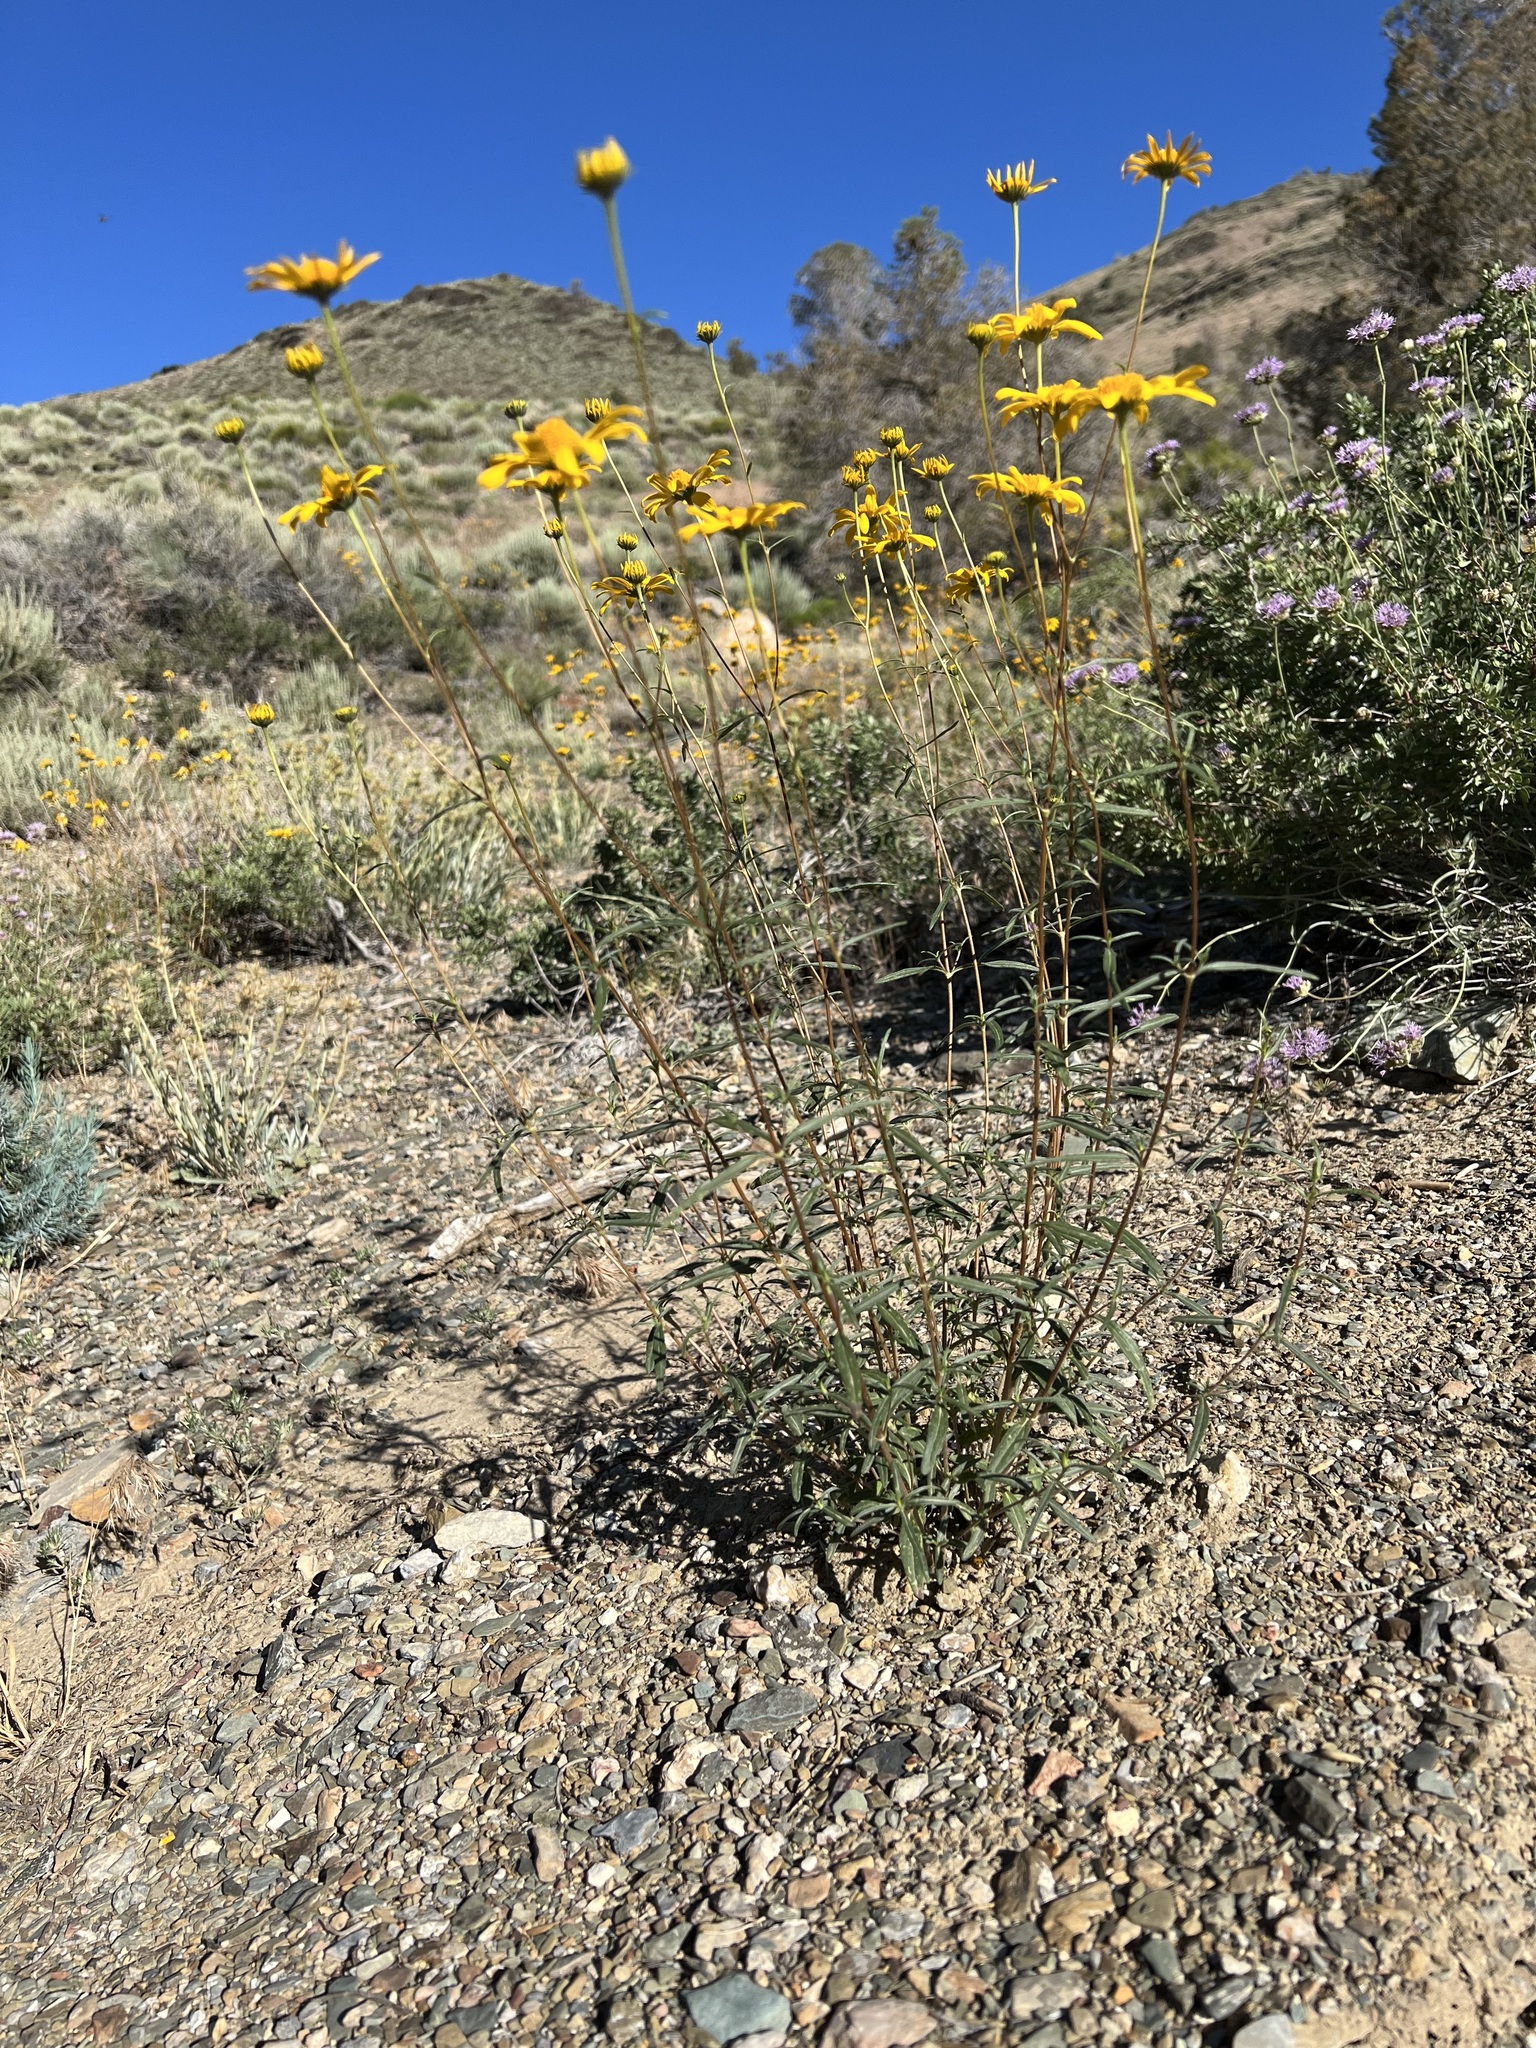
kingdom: Plantae
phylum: Tracheophyta
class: Magnoliopsida
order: Asterales
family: Asteraceae
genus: Heliomeris
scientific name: Heliomeris multiflora
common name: Showy goldeneye
